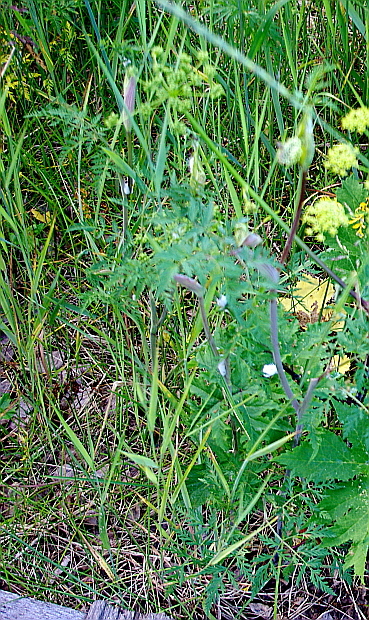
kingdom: Plantae
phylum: Tracheophyta
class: Magnoliopsida
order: Apiales
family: Apiaceae
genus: Conioselinum
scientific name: Conioselinum tataricum
